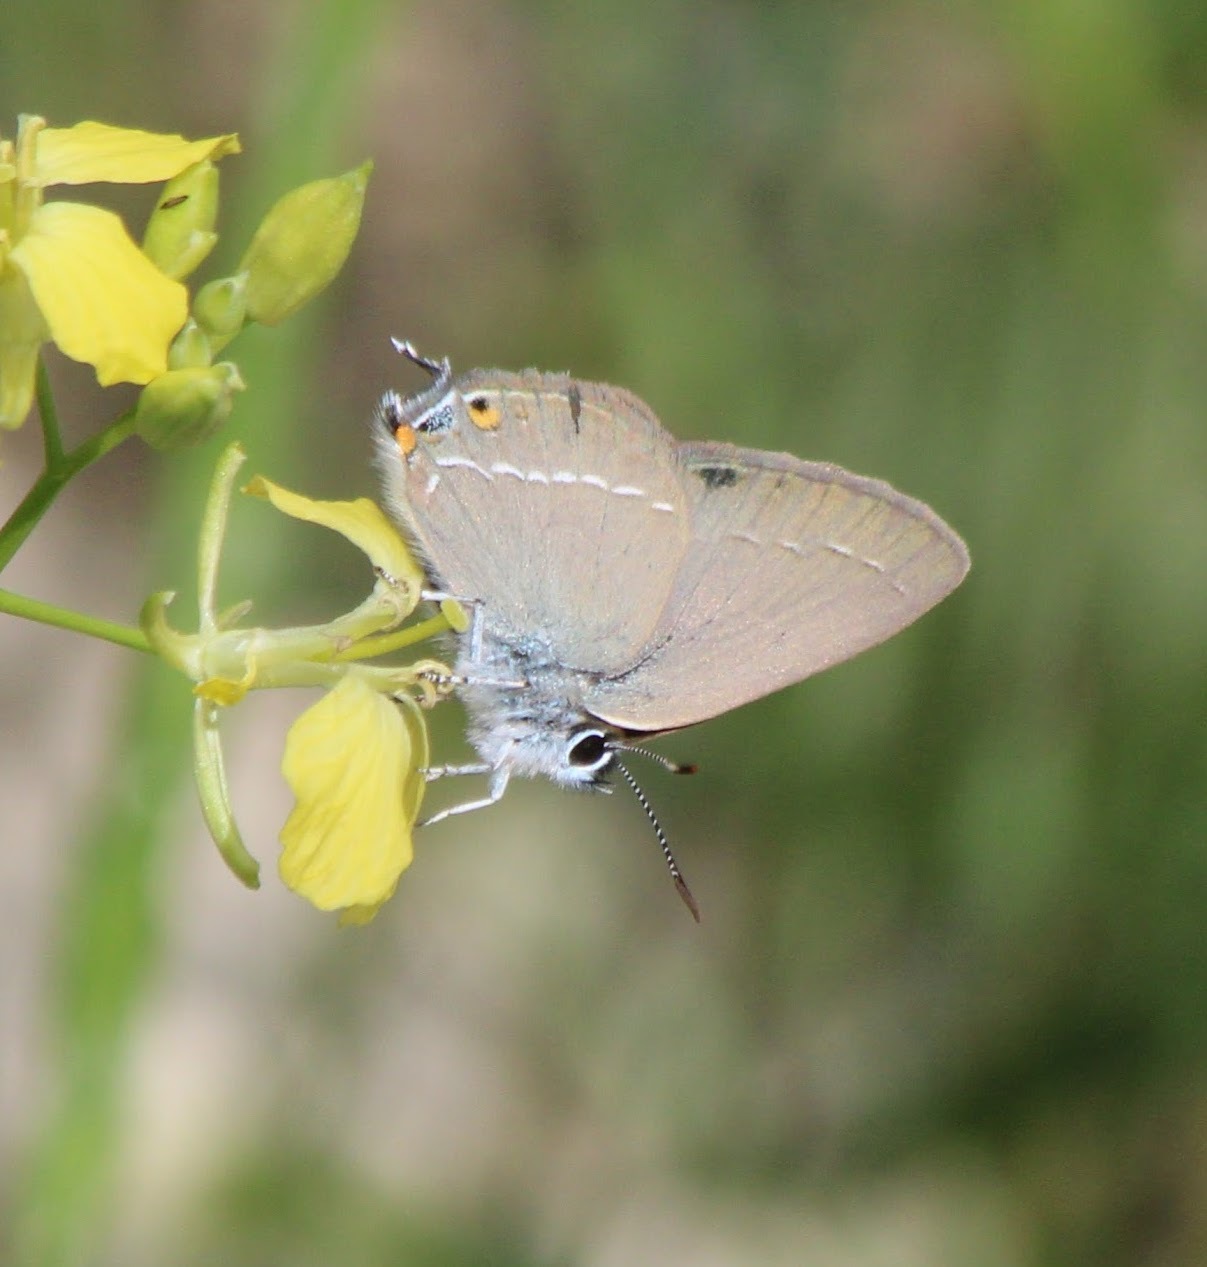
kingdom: Animalia
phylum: Arthropoda
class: Insecta
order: Lepidoptera
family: Lycaenidae
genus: Satyrium
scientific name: Satyrium abdominalis
